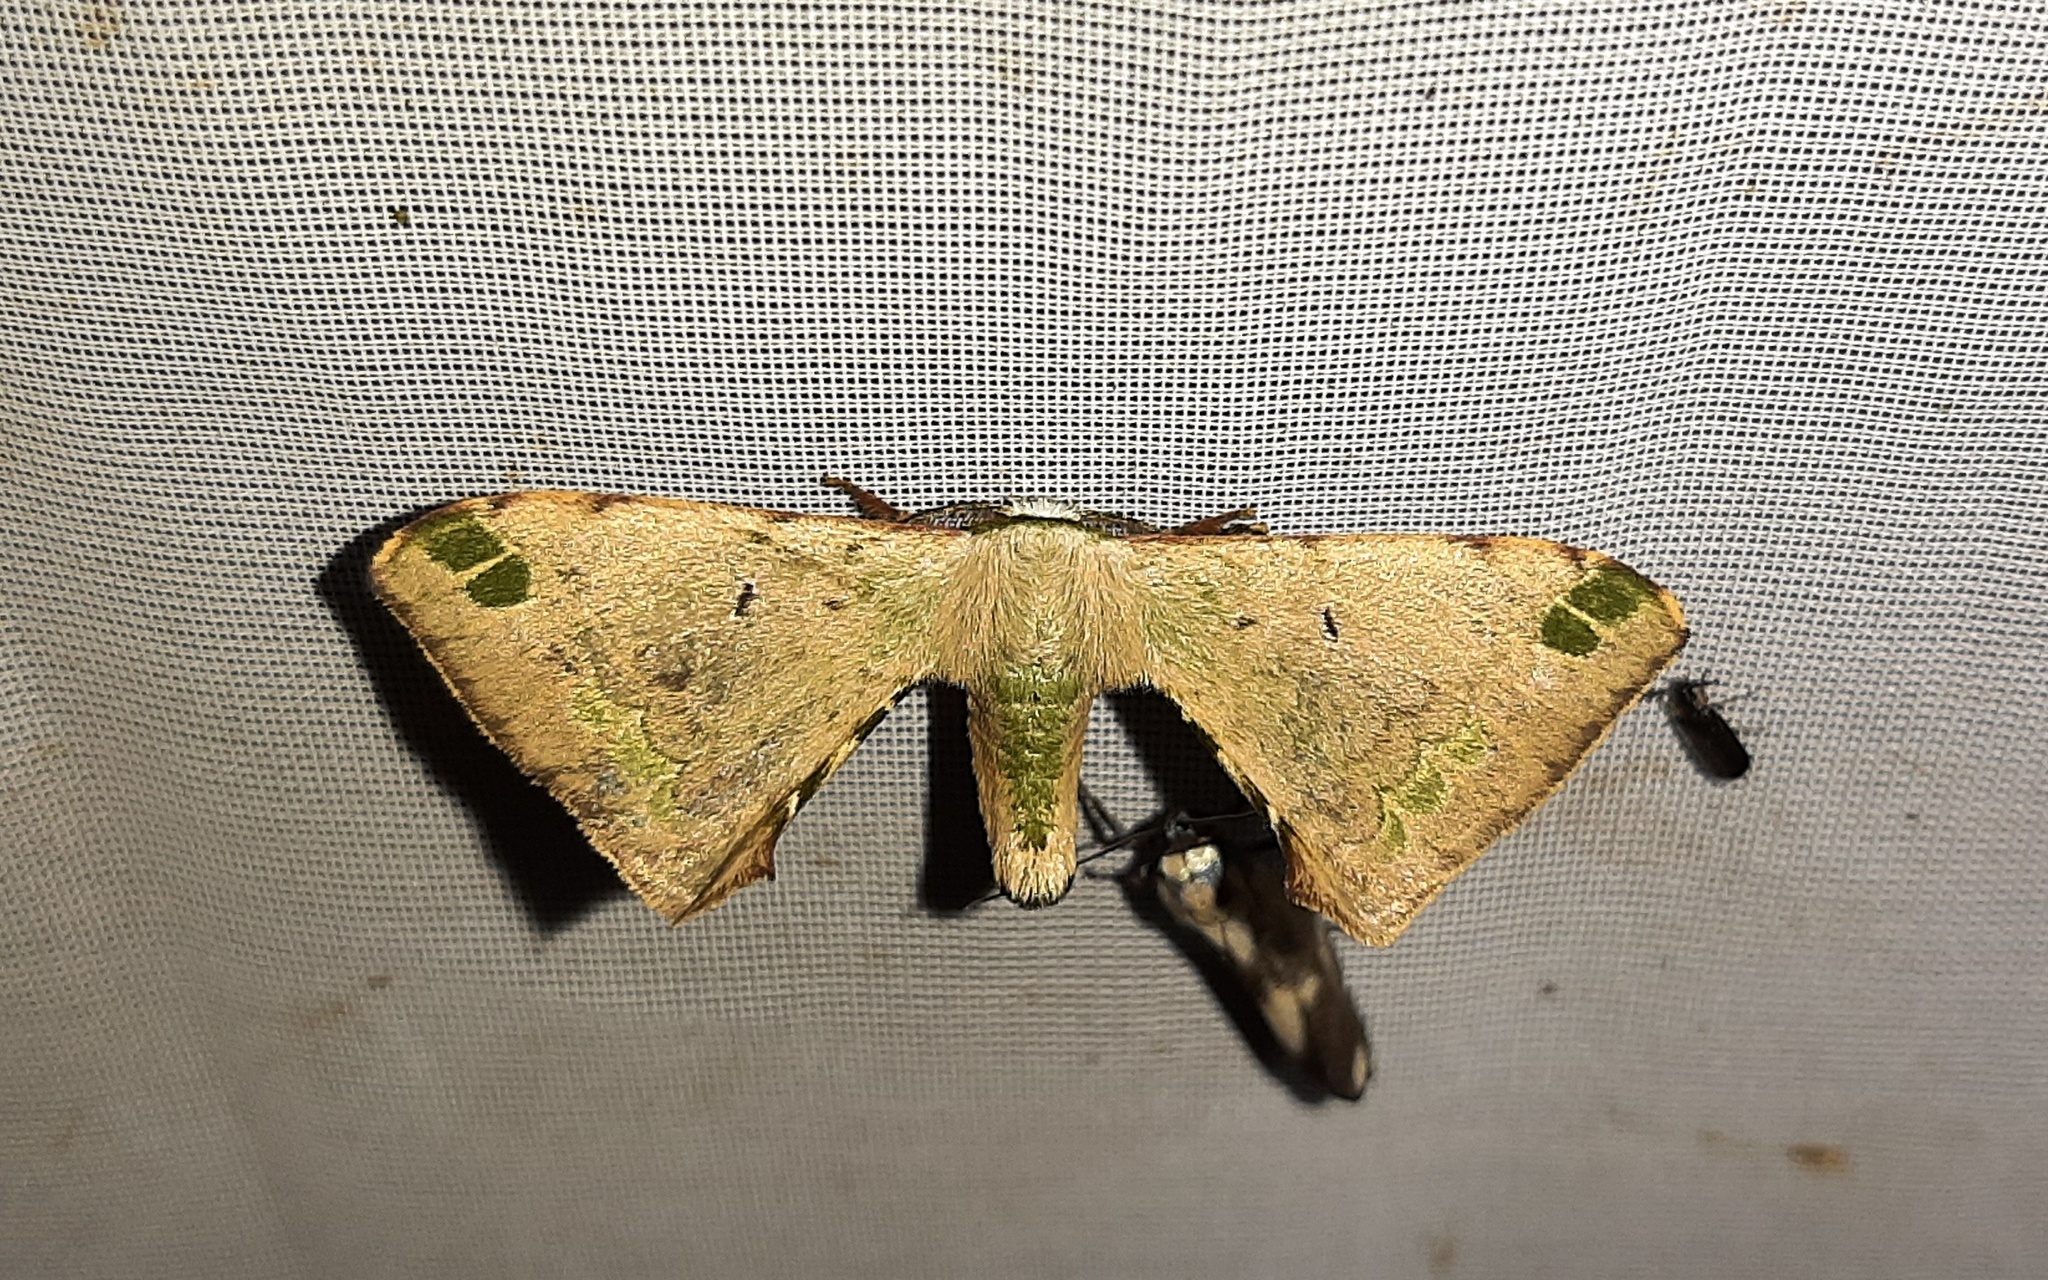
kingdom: Animalia
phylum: Arthropoda
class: Insecta
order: Lepidoptera
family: Bombycidae
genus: Anticla
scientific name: Anticla antica
